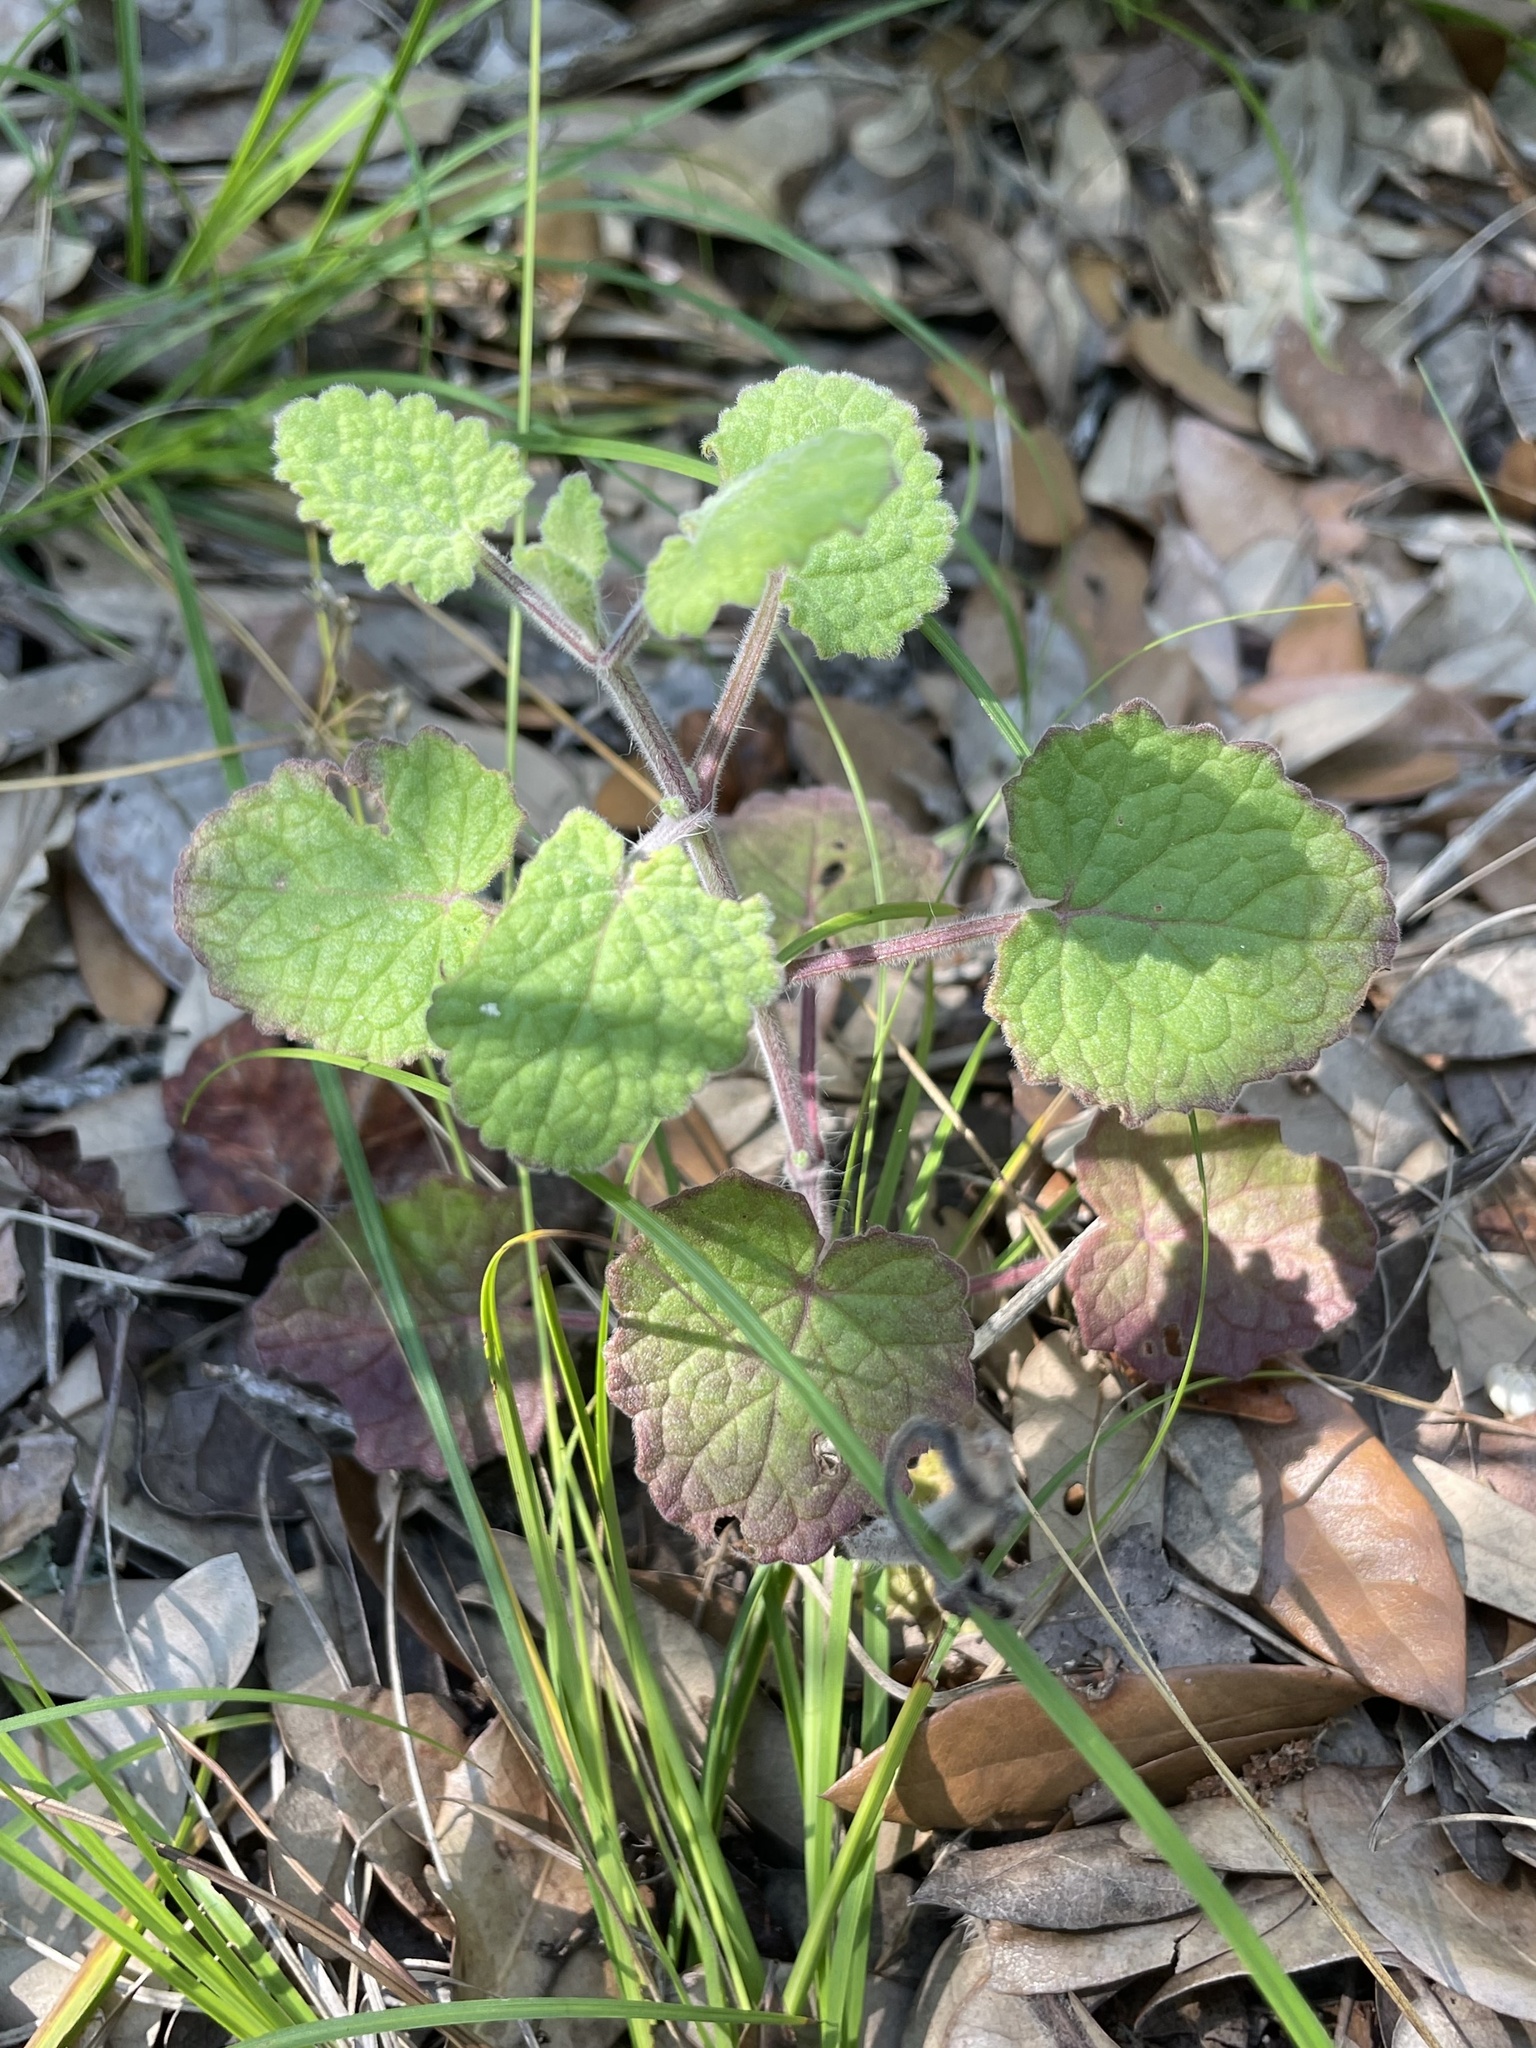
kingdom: Plantae
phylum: Tracheophyta
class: Magnoliopsida
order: Lamiales
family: Lamiaceae
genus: Salvia
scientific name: Salvia roemeriana
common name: Cedar sage
